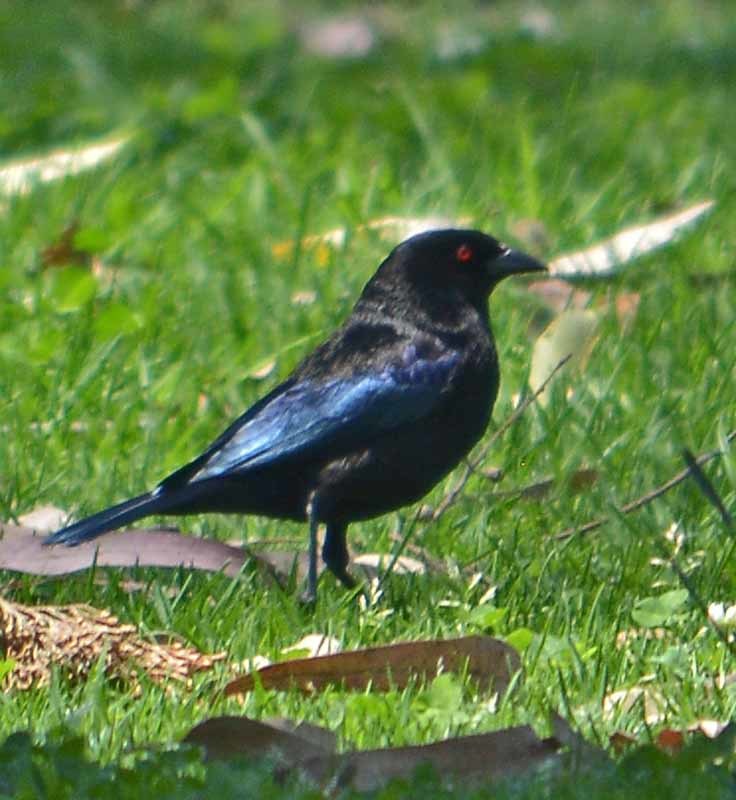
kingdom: Animalia
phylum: Chordata
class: Aves
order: Passeriformes
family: Icteridae
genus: Molothrus
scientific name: Molothrus aeneus
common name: Bronzed cowbird
